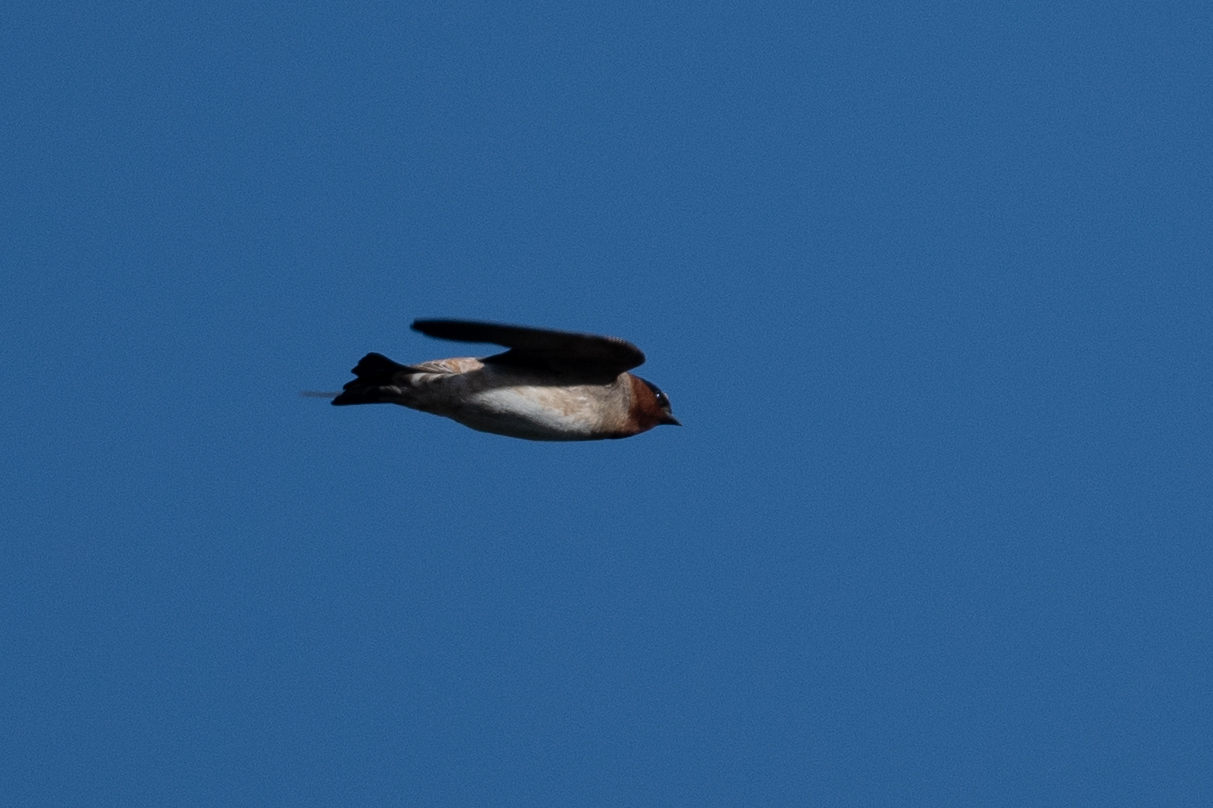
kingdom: Animalia
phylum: Chordata
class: Aves
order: Passeriformes
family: Hirundinidae
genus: Petrochelidon
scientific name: Petrochelidon pyrrhonota
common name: American cliff swallow
